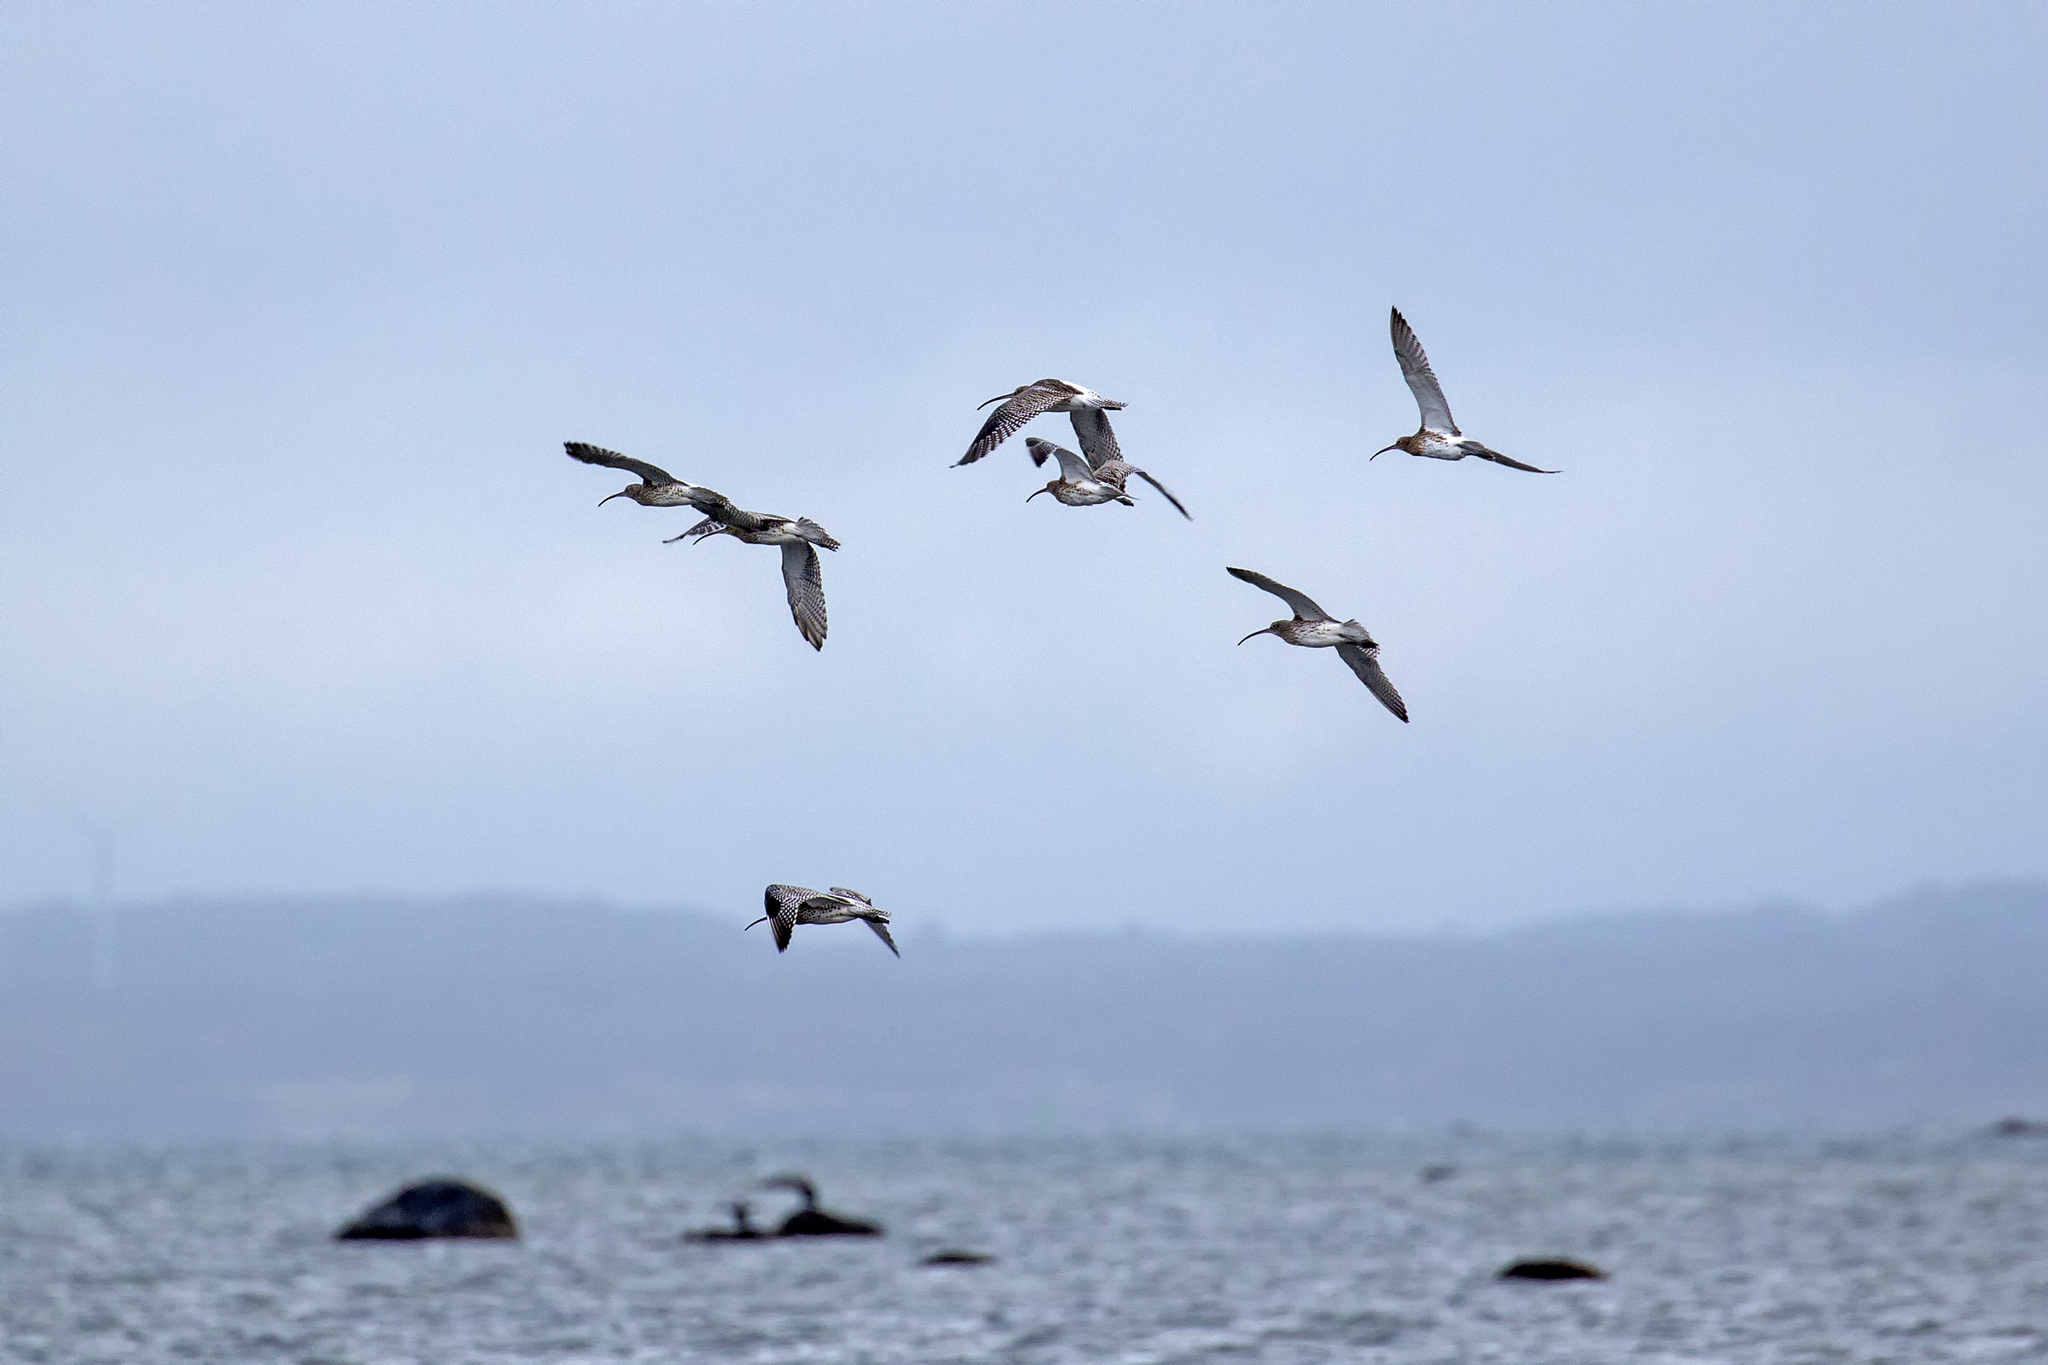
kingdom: Animalia
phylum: Chordata
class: Aves
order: Charadriiformes
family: Scolopacidae
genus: Numenius
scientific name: Numenius arquata
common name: Eurasian curlew
